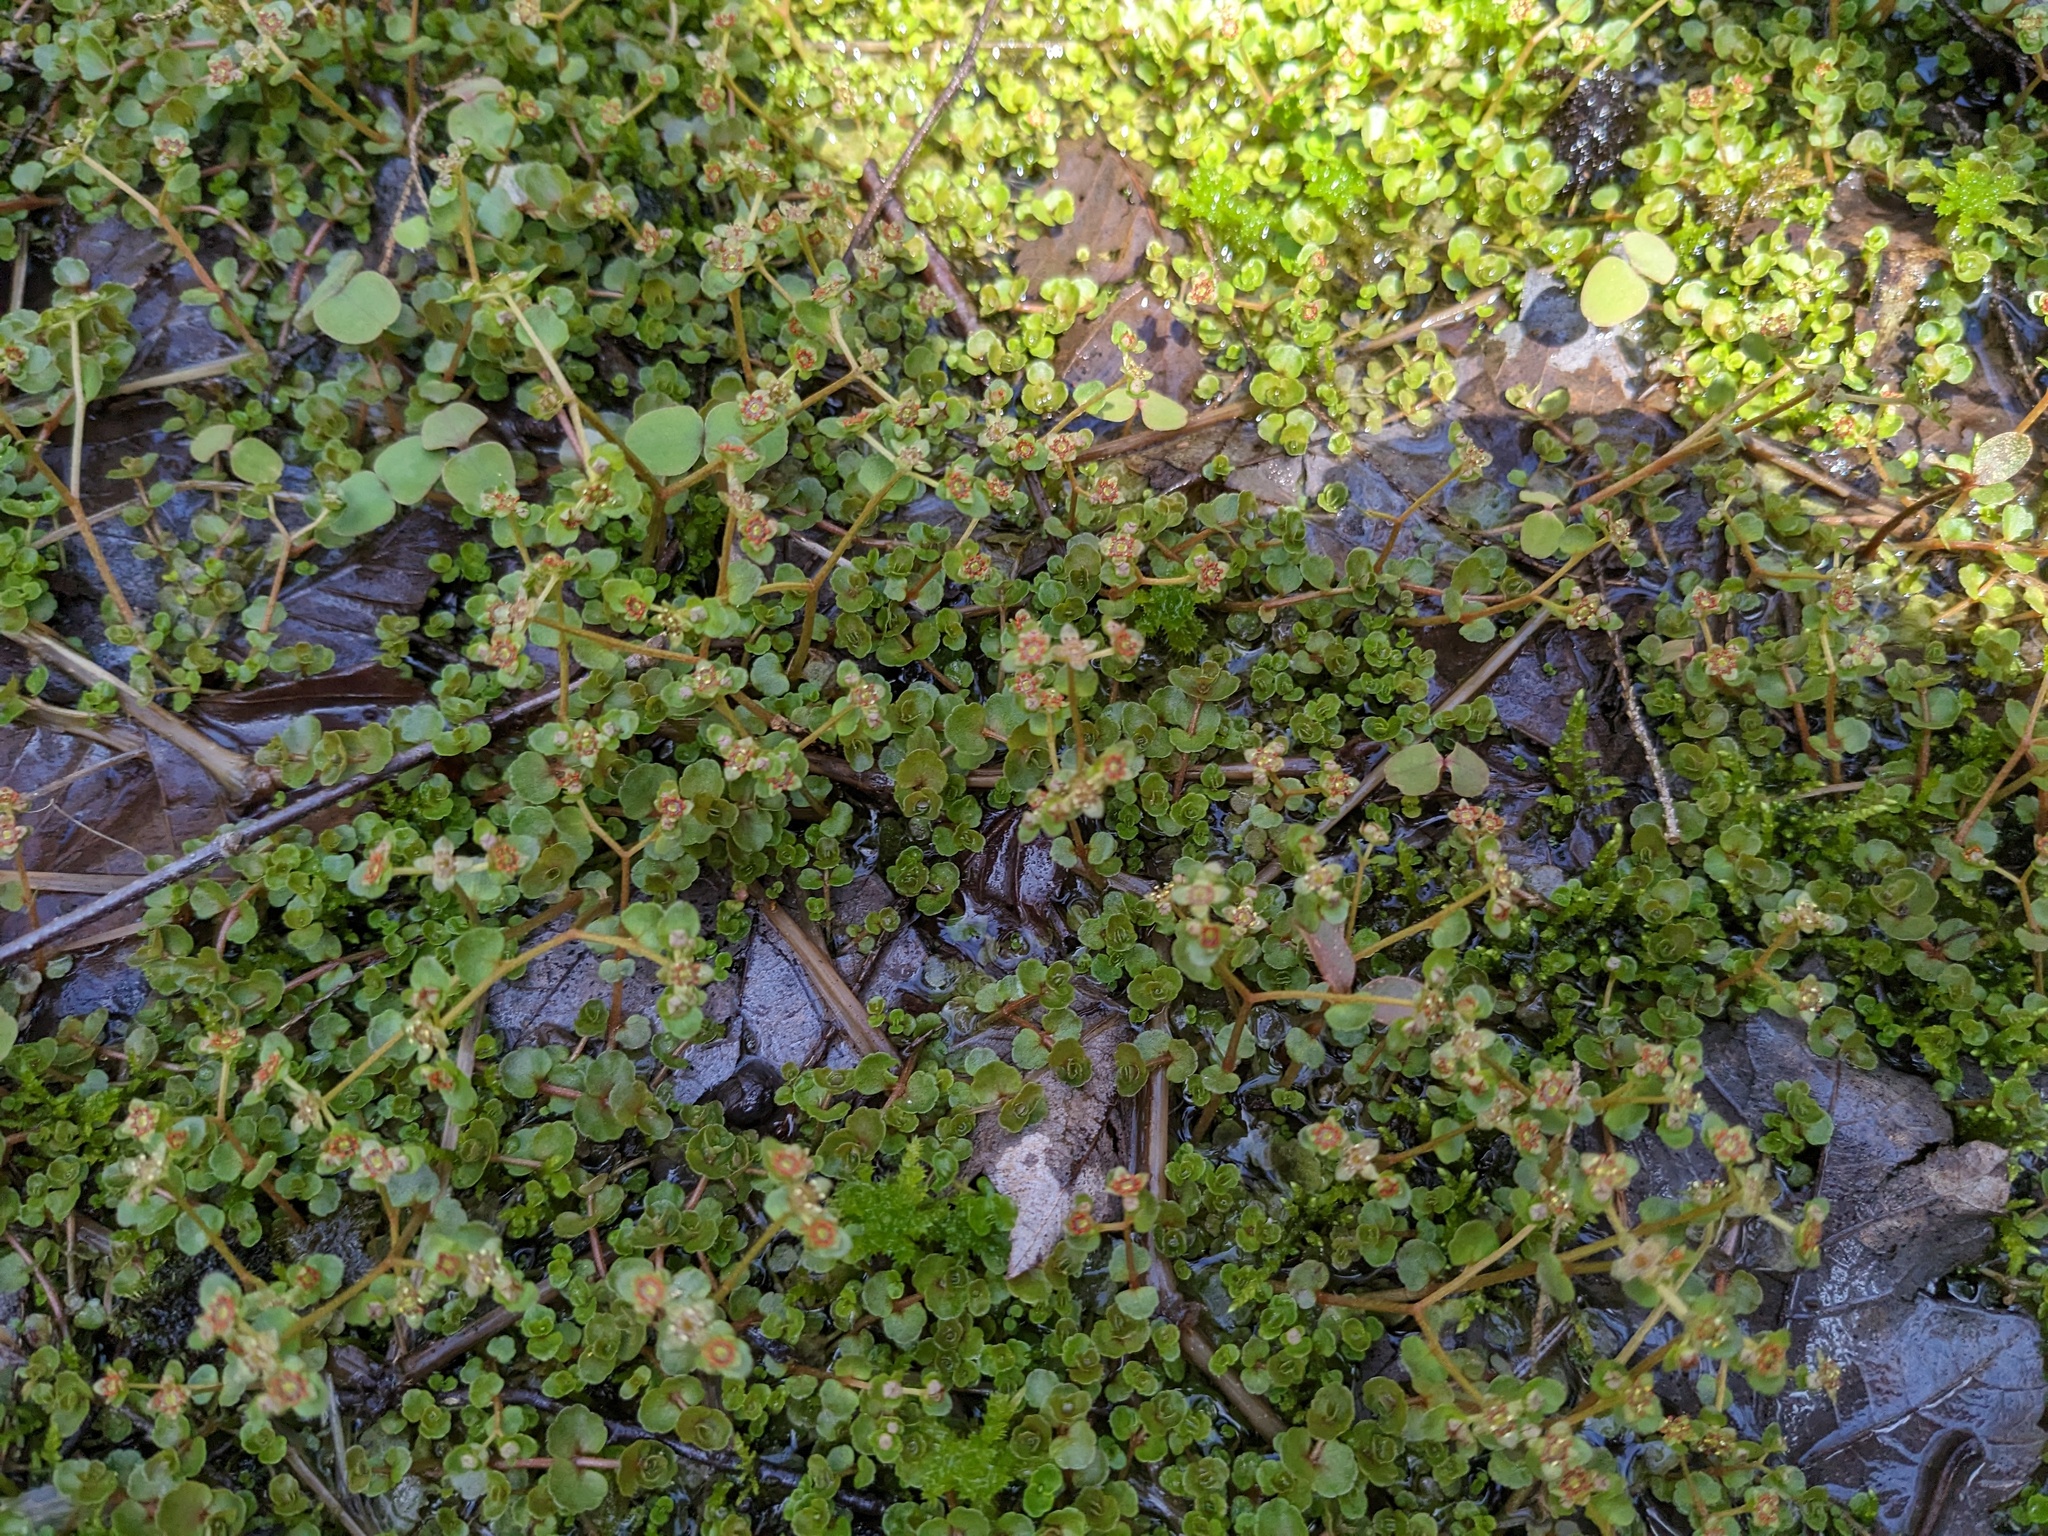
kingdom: Plantae
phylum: Tracheophyta
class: Magnoliopsida
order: Saxifragales
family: Saxifragaceae
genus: Chrysosplenium
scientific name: Chrysosplenium americanum
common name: American golden-saxifrage
